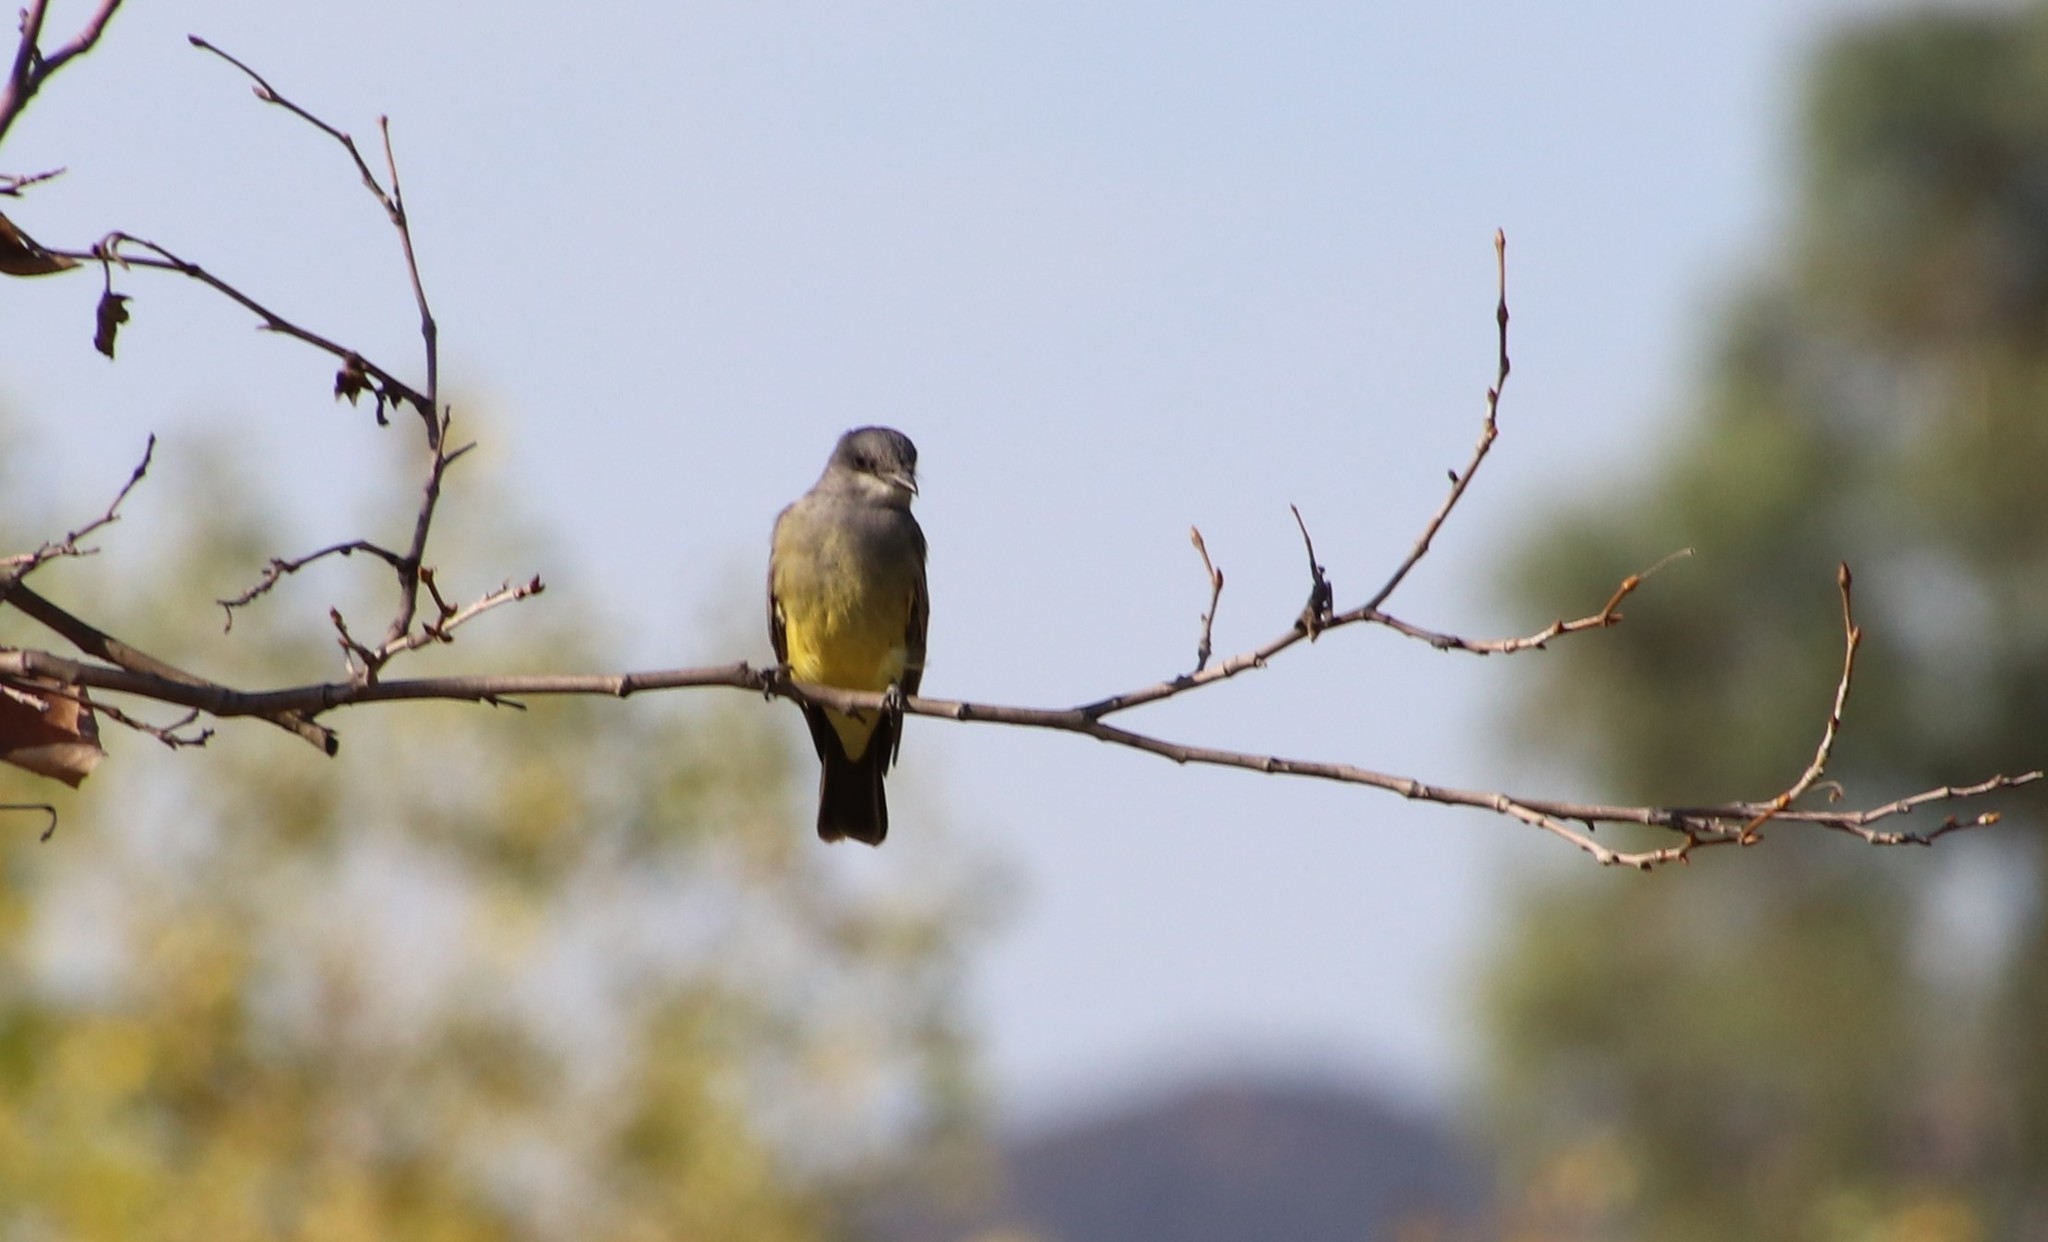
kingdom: Animalia
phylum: Chordata
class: Aves
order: Passeriformes
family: Tyrannidae
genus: Tyrannus
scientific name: Tyrannus vociferans
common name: Cassin's kingbird
